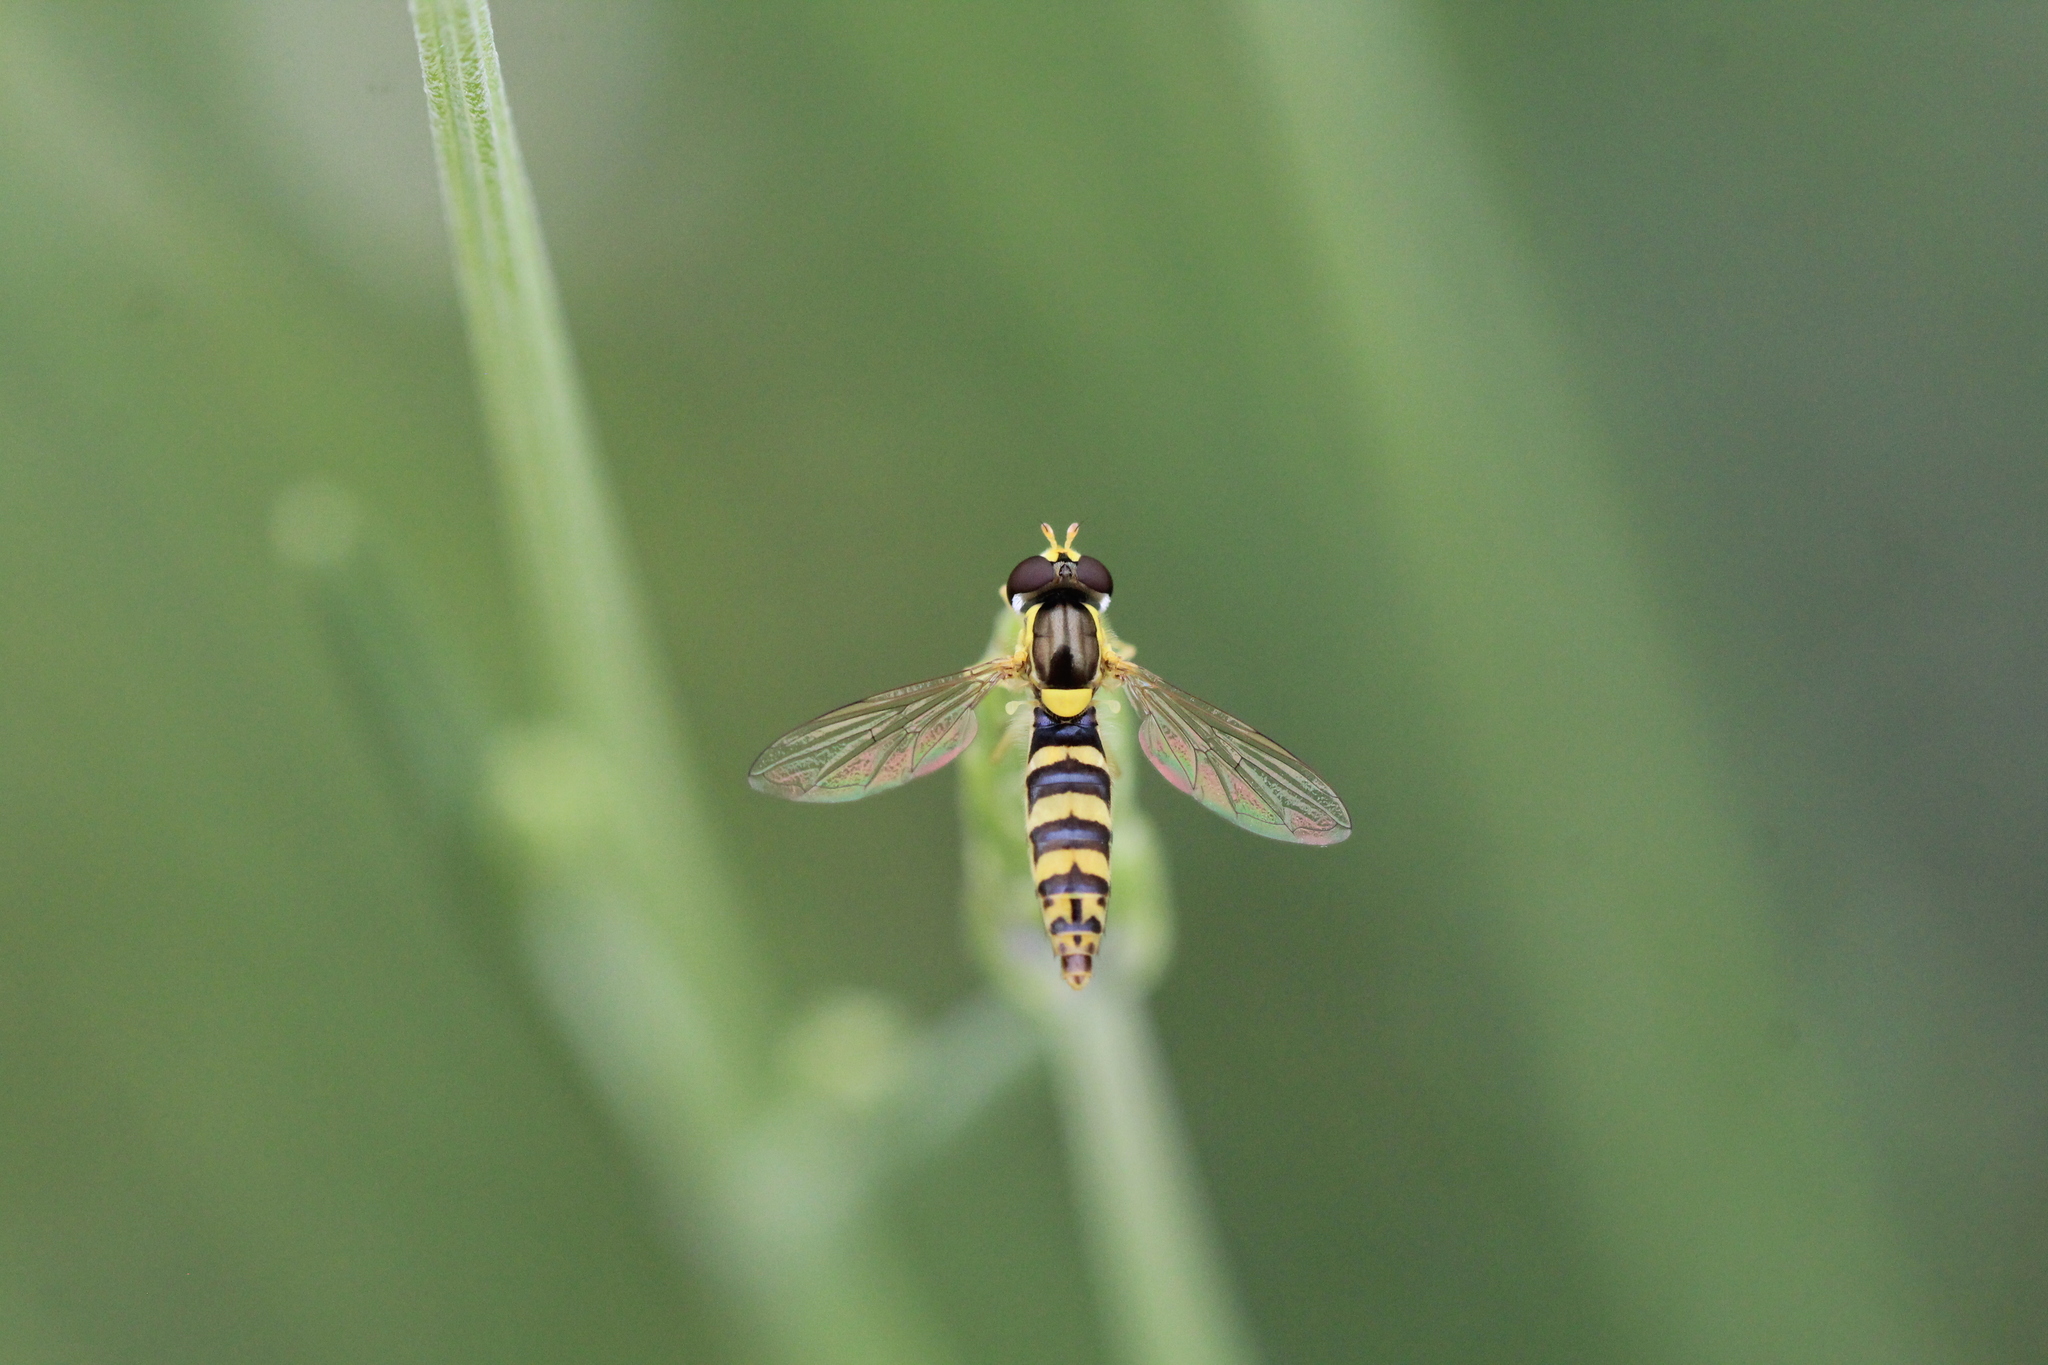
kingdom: Animalia
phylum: Arthropoda
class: Insecta
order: Diptera
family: Syrphidae
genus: Sphaerophoria
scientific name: Sphaerophoria
